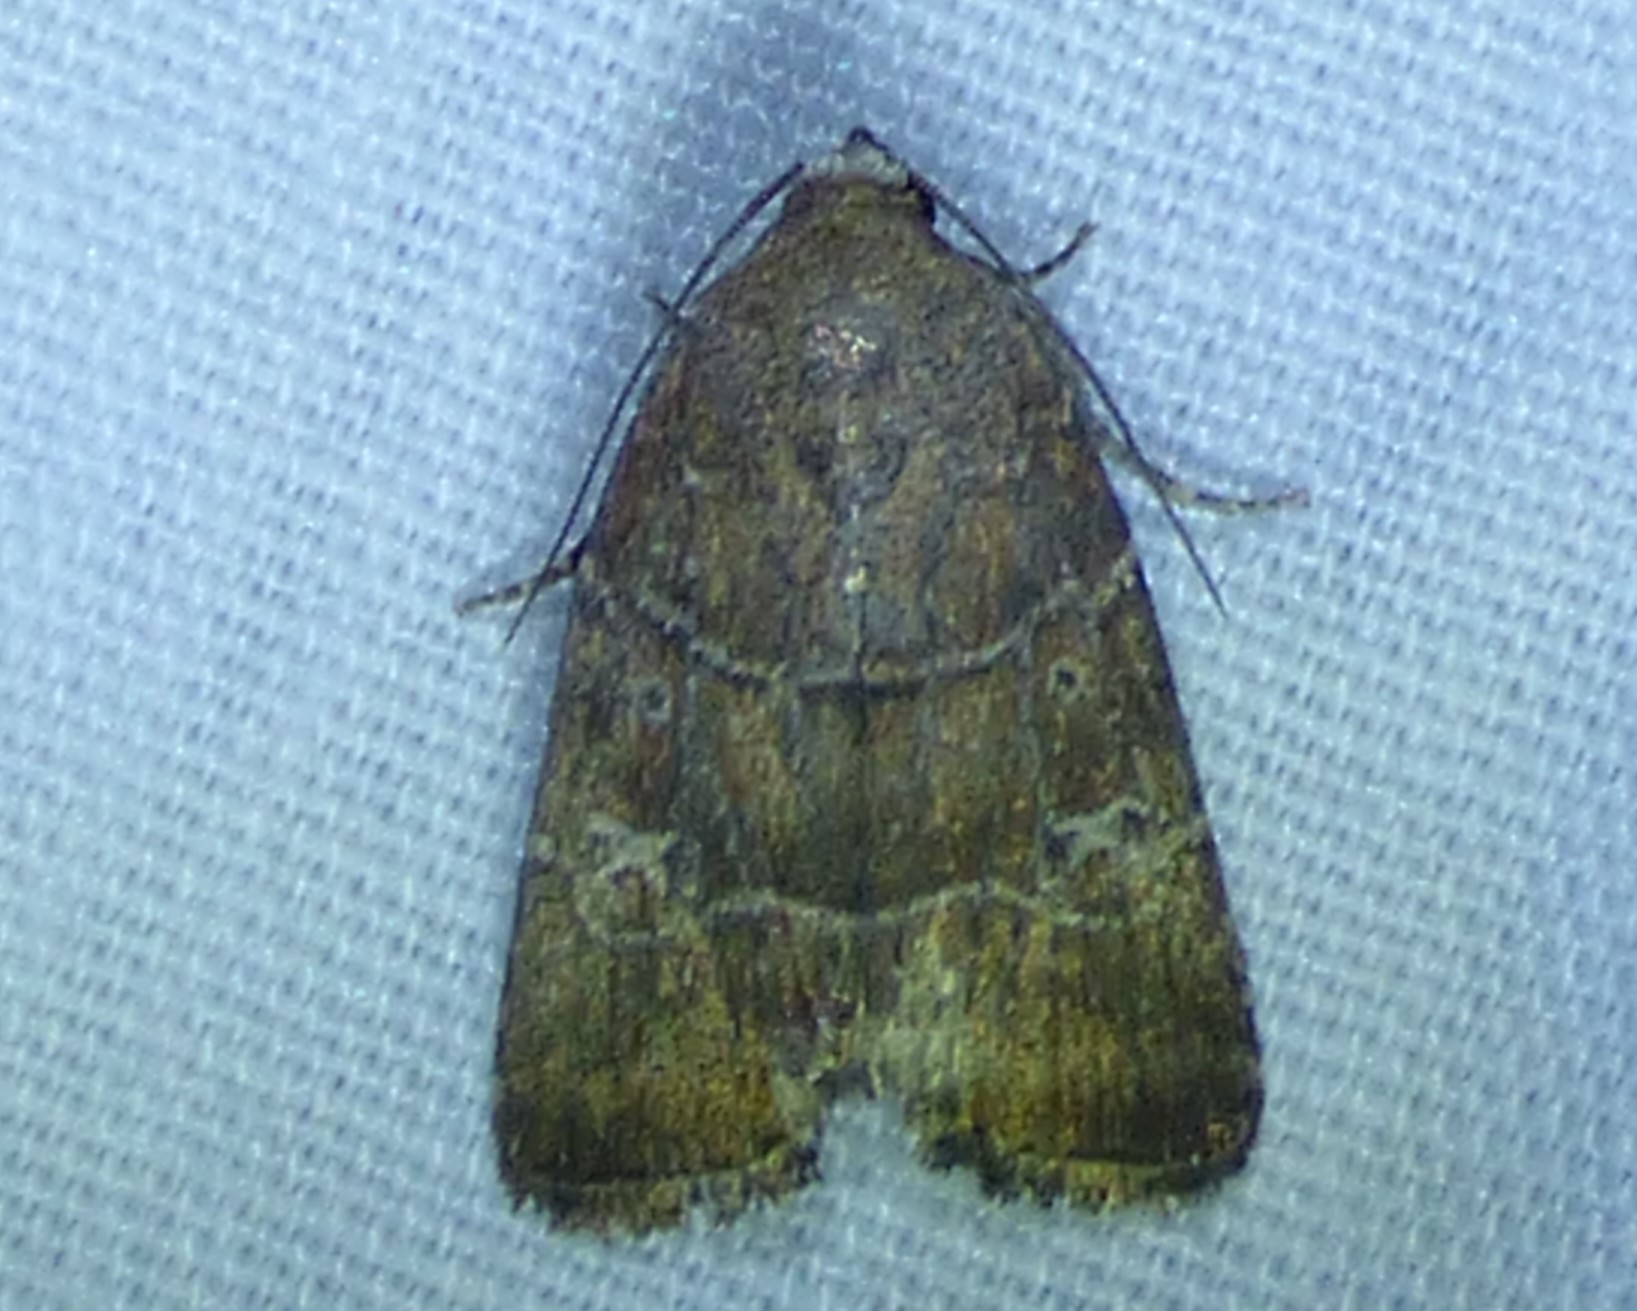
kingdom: Animalia
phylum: Arthropoda
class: Insecta
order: Lepidoptera
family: Noctuidae
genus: Elaphria
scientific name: Elaphria grata
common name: Grateful midget moth
